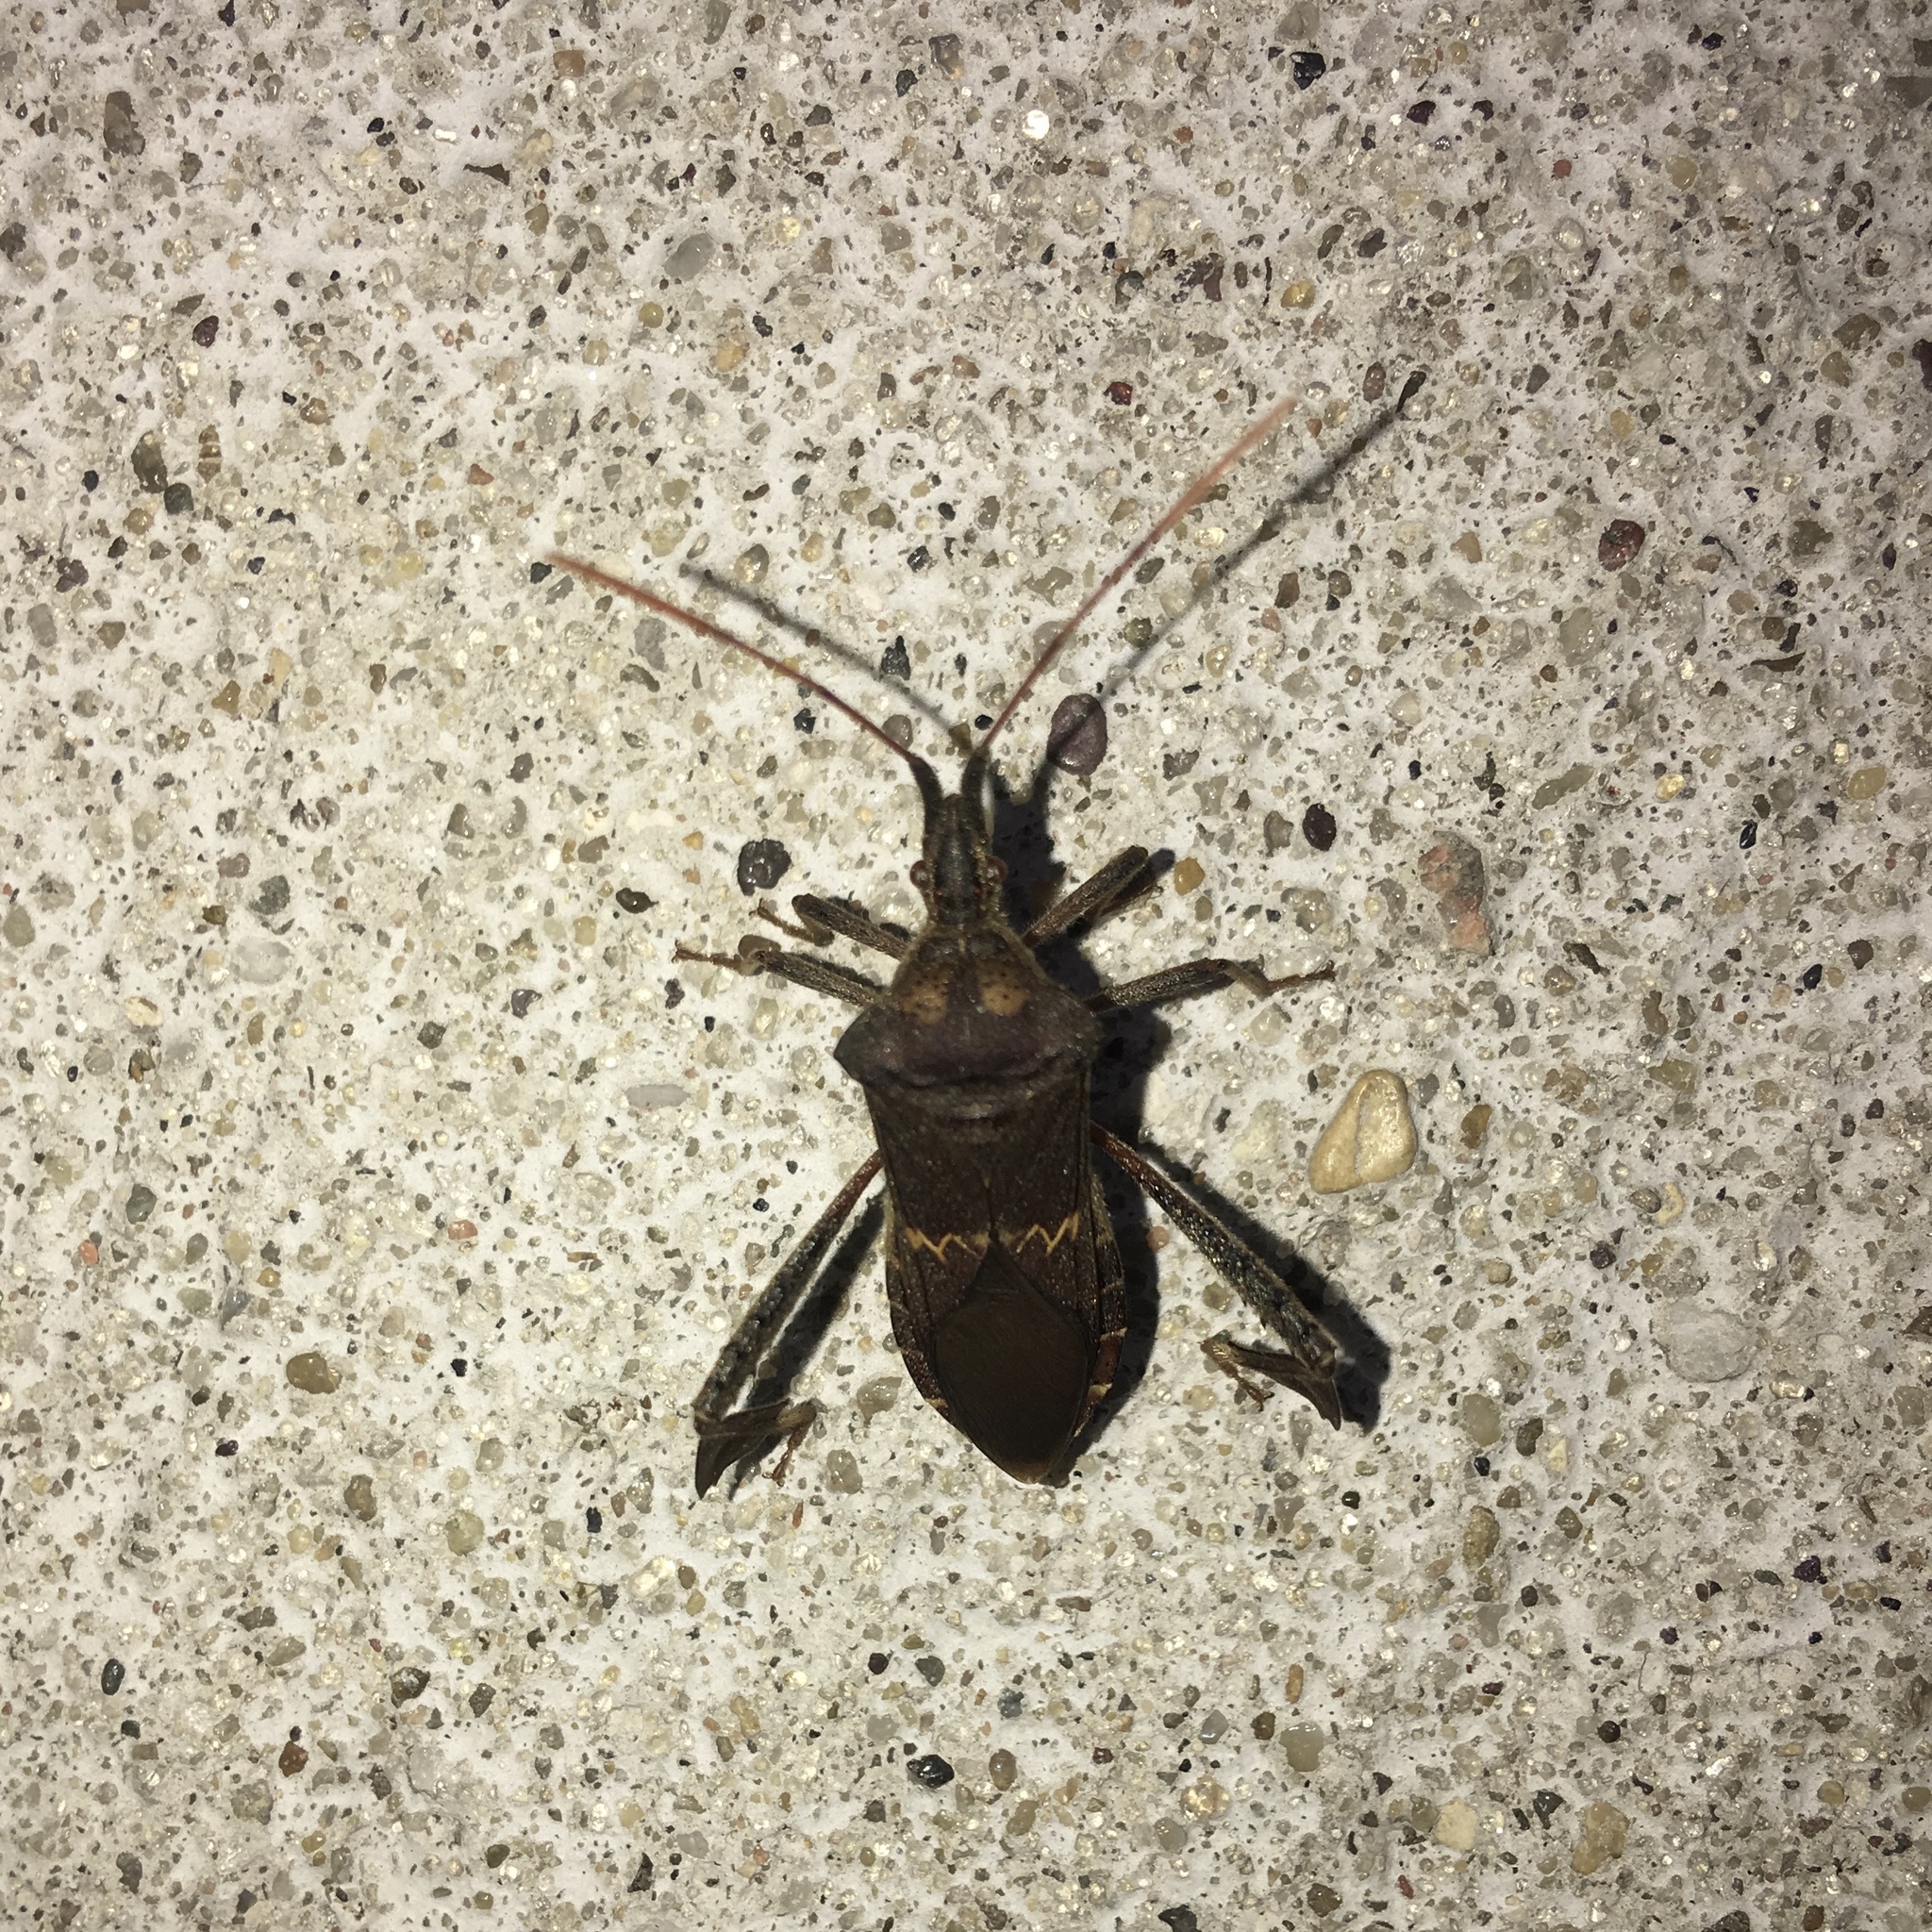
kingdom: Animalia
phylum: Arthropoda
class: Insecta
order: Hemiptera
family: Coreidae
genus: Leptoglossus
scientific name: Leptoglossus zonatus
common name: Large-legged bug
